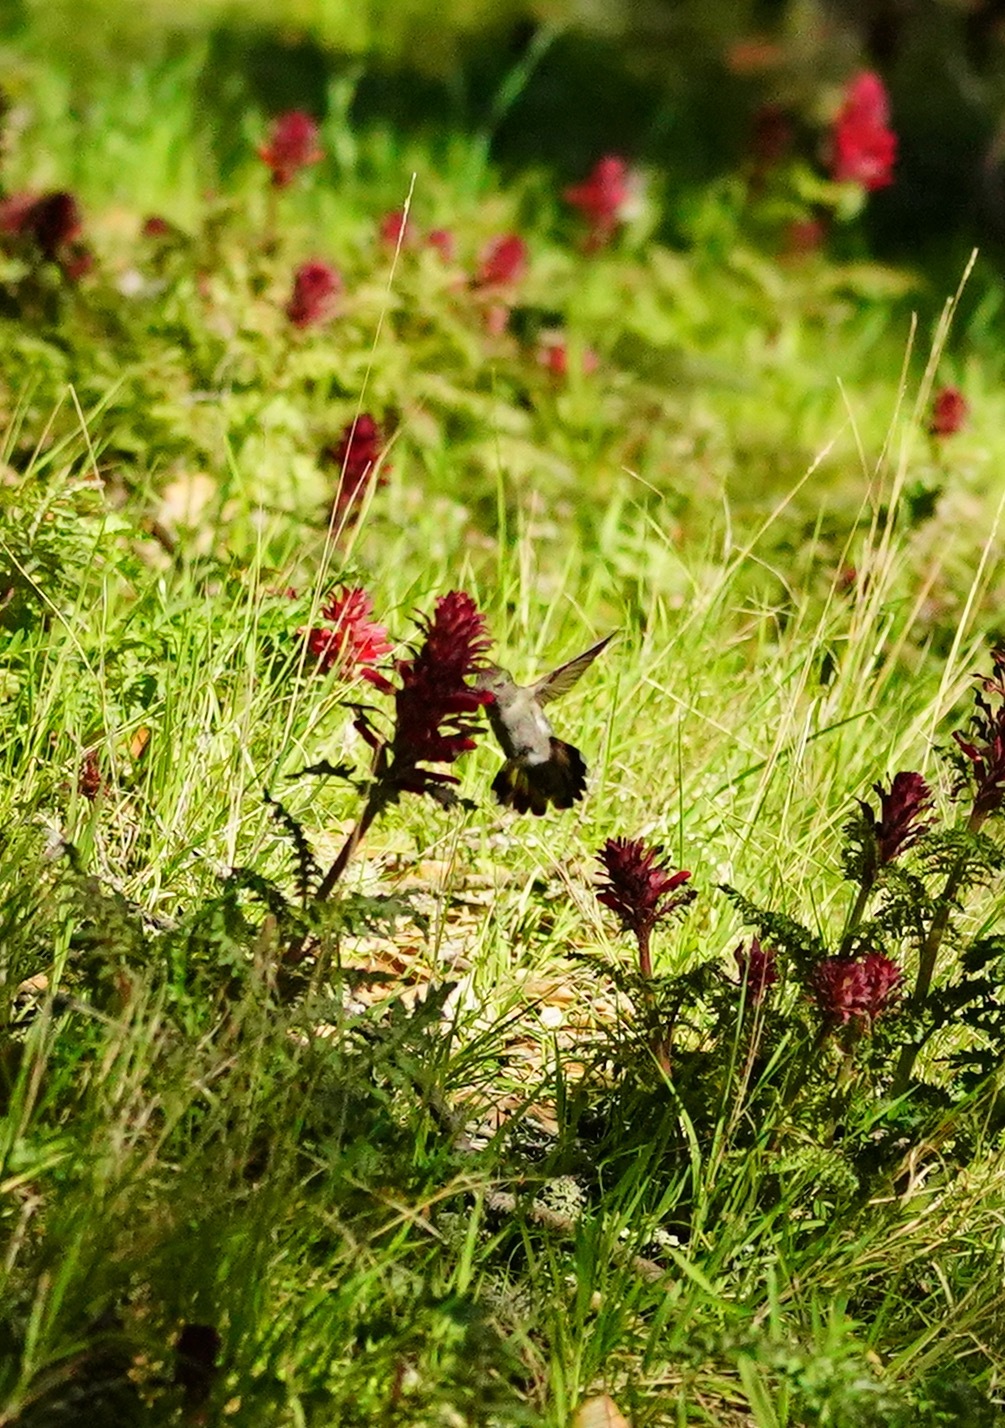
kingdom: Animalia
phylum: Chordata
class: Aves
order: Apodiformes
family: Trochilidae
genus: Calypte
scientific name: Calypte anna
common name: Anna's hummingbird
